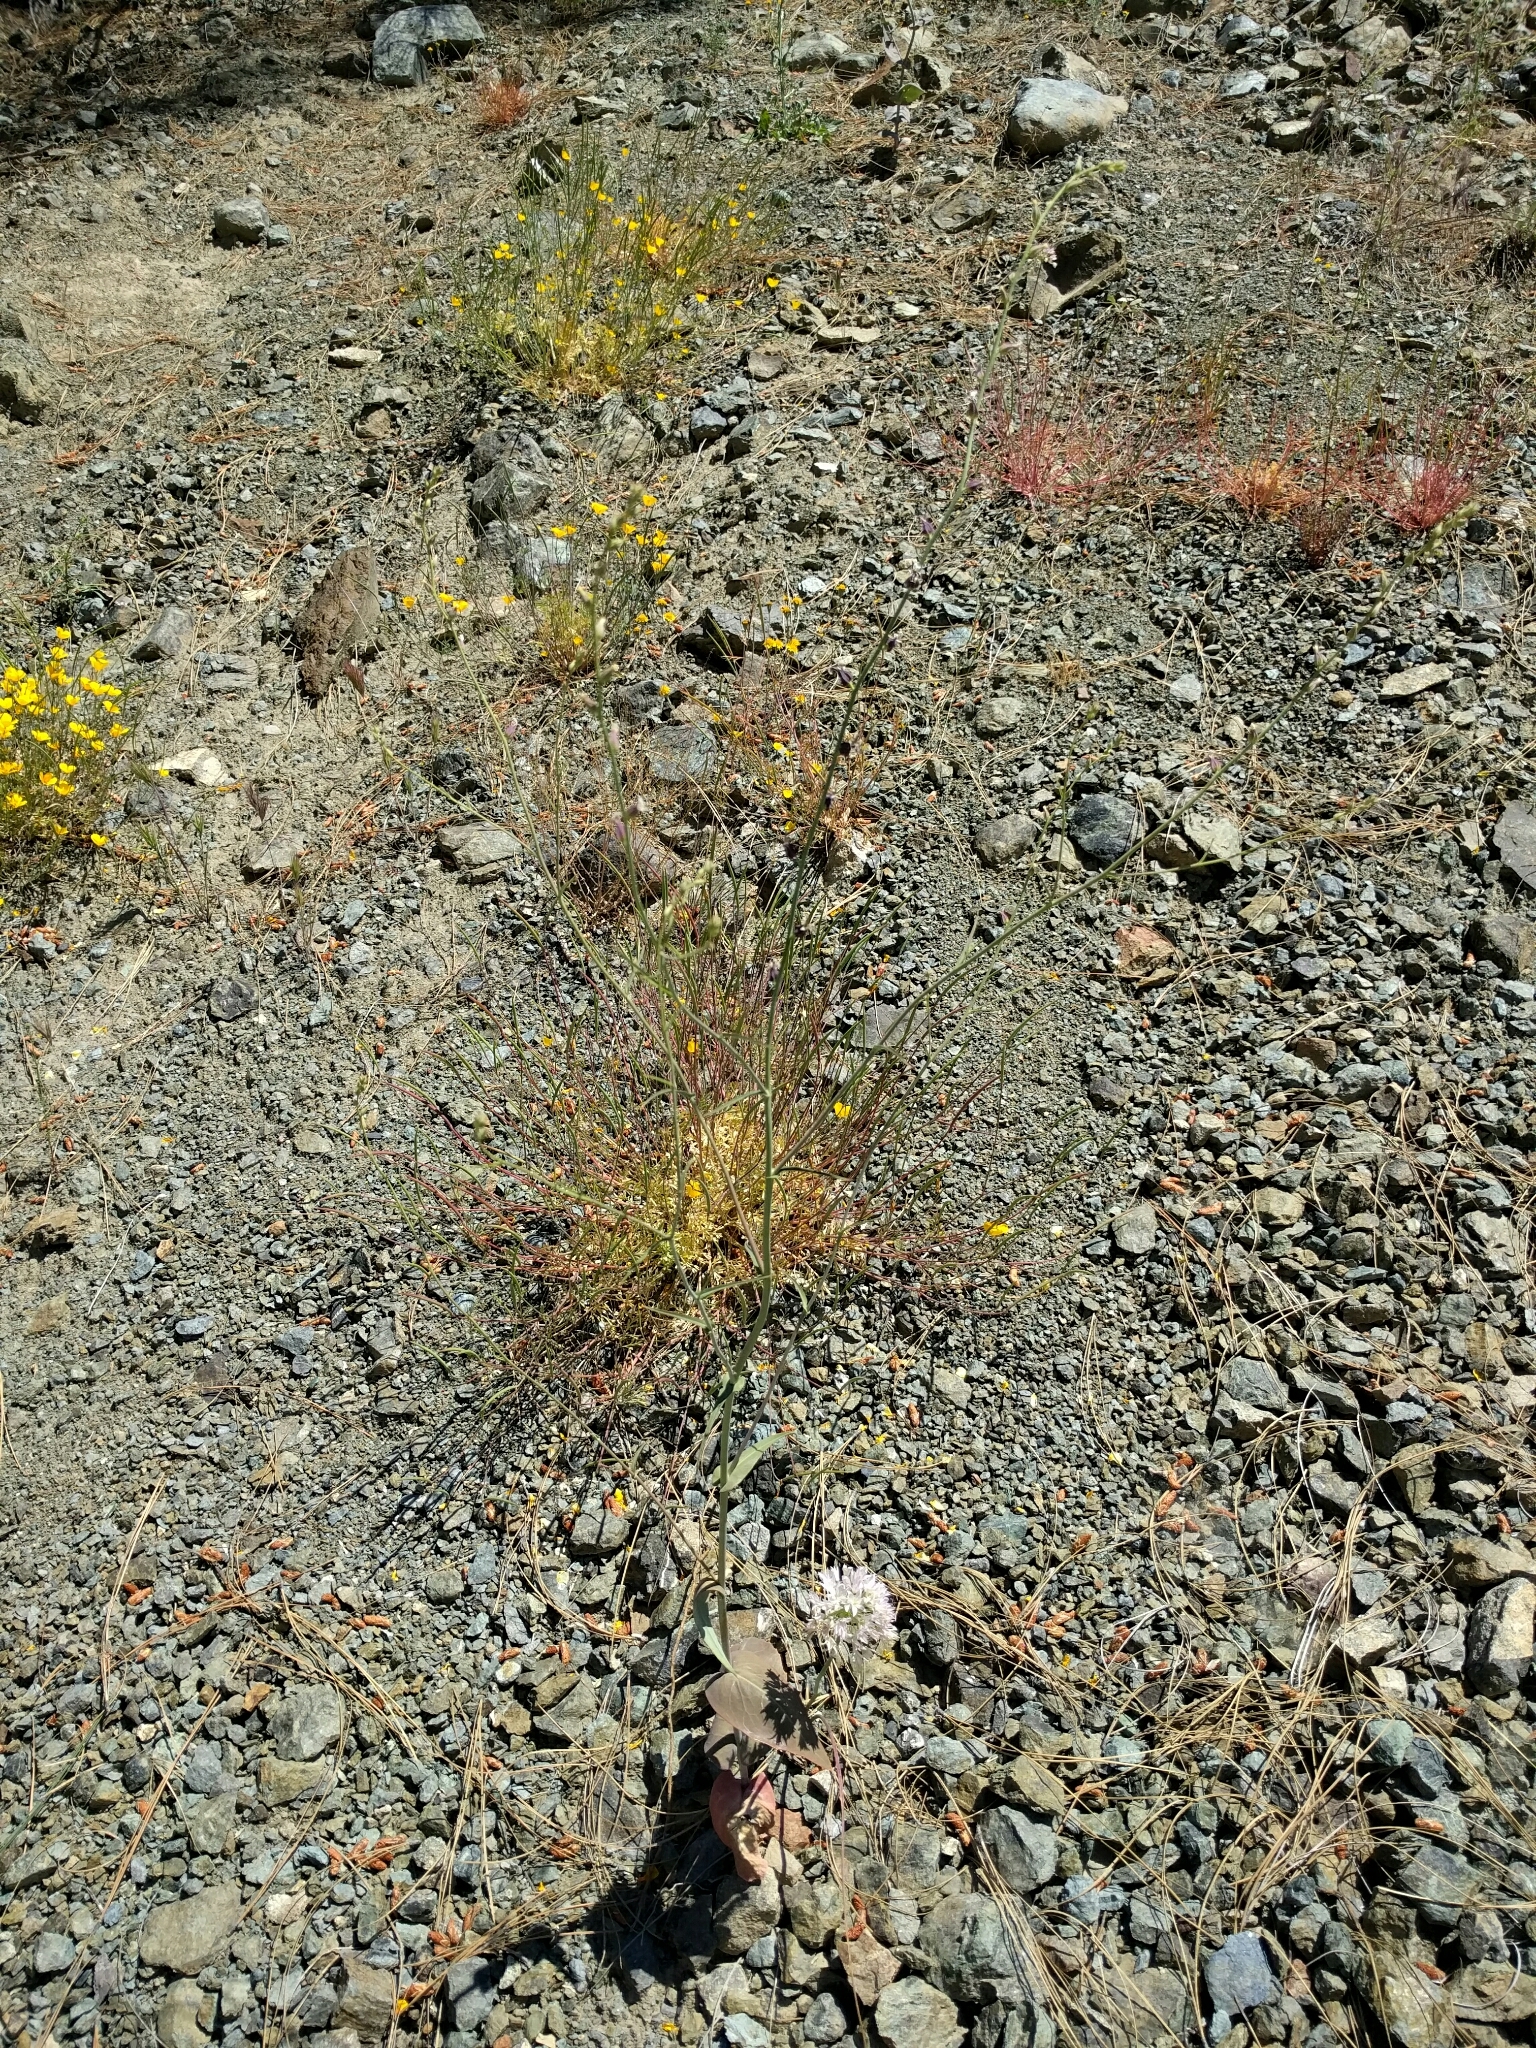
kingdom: Plantae
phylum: Tracheophyta
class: Magnoliopsida
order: Brassicales
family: Brassicaceae
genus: Streptanthus
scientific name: Streptanthus breweri
